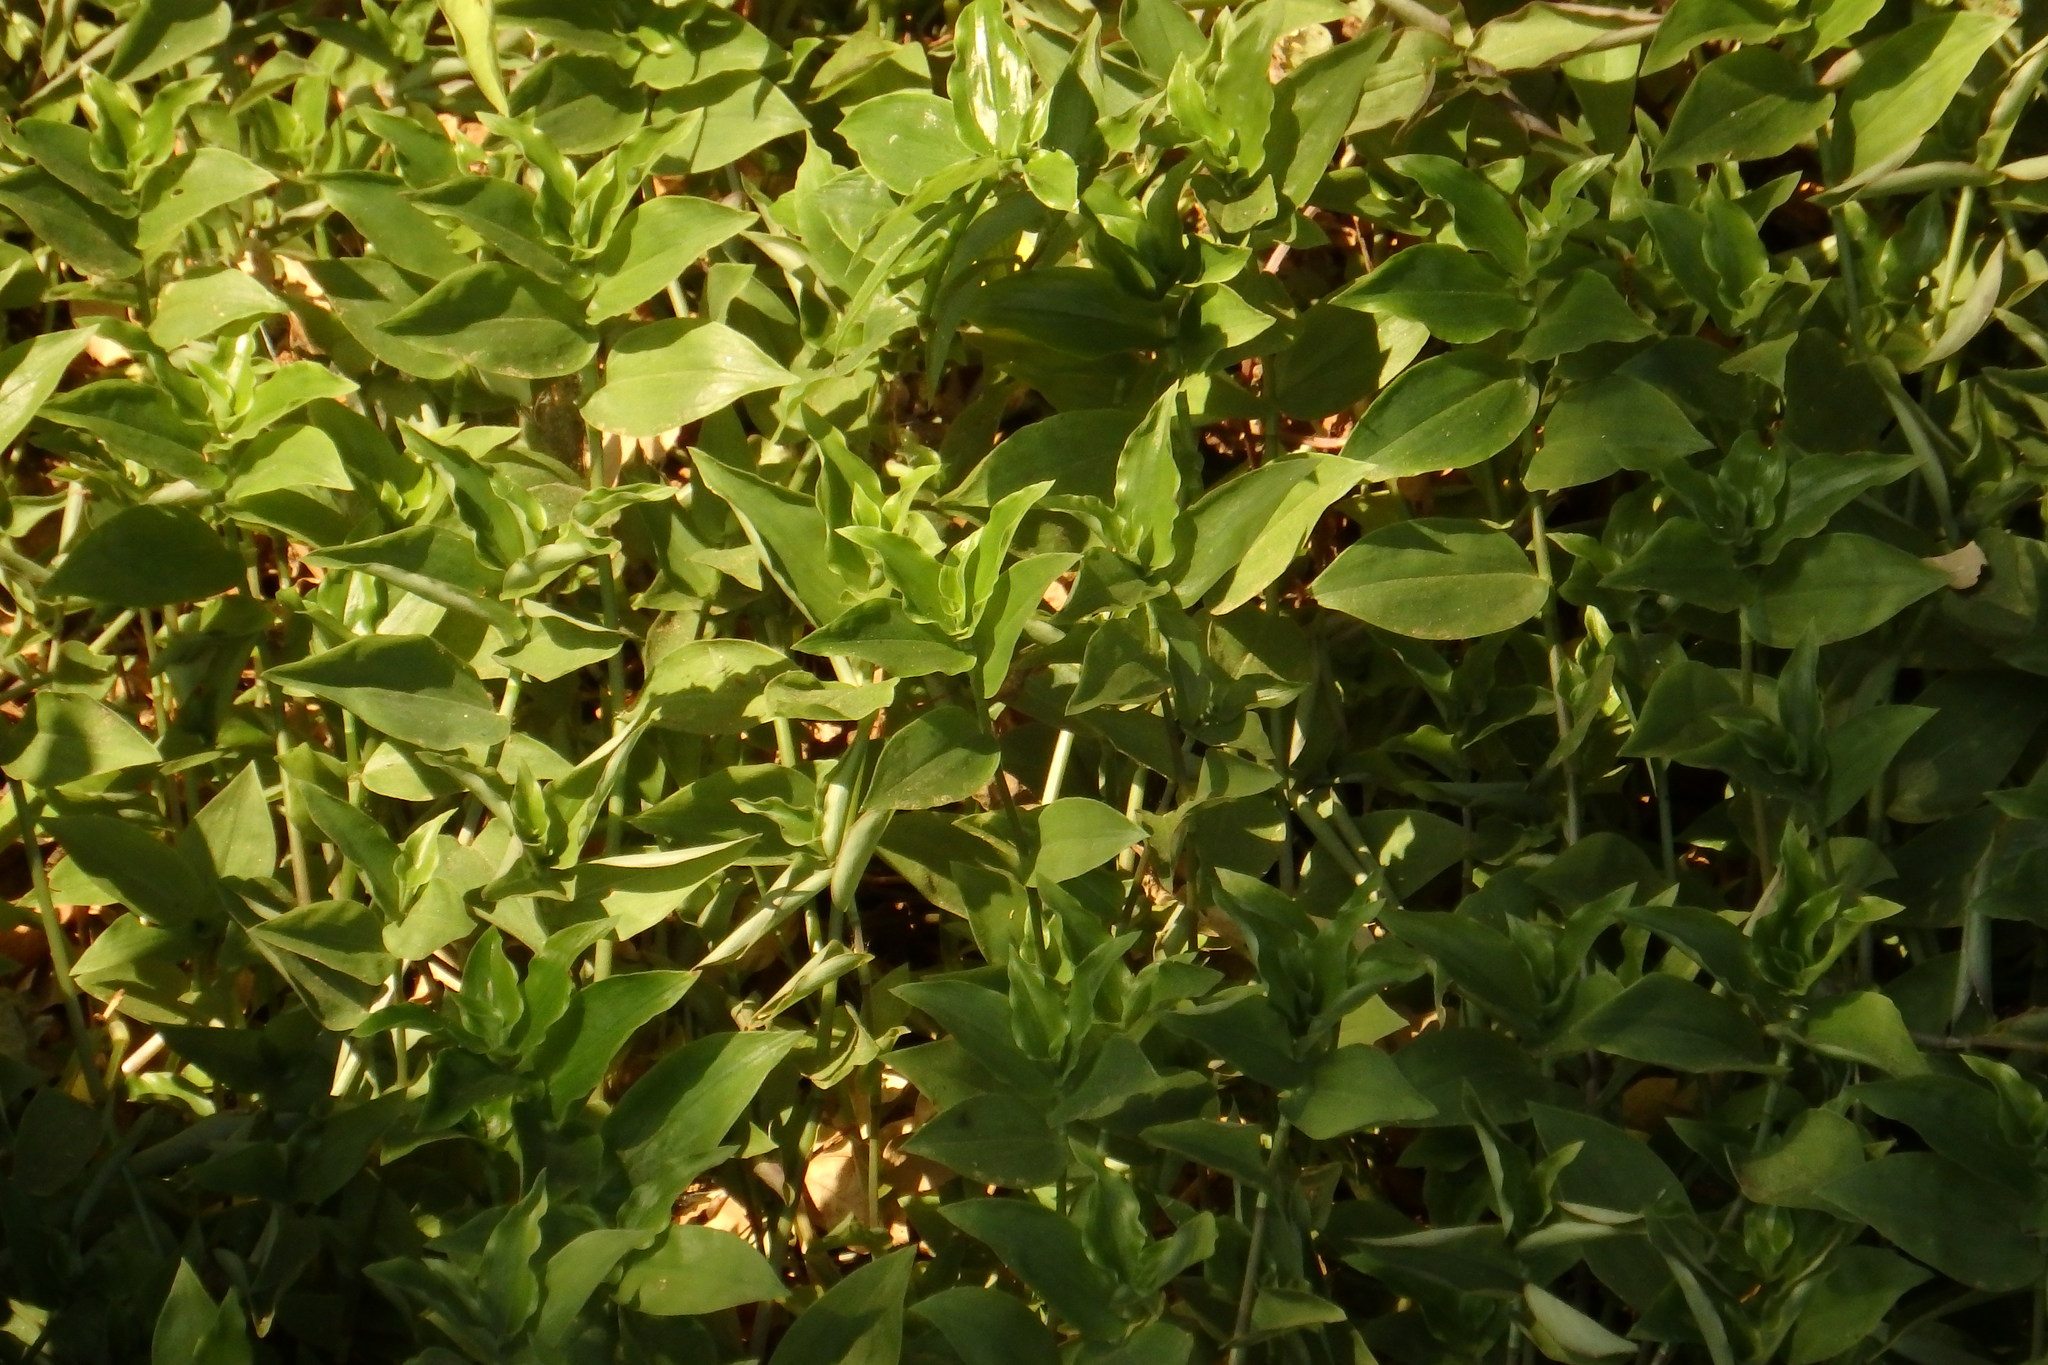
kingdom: Plantae
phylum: Tracheophyta
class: Liliopsida
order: Commelinales
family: Commelinaceae
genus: Tradescantia
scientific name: Tradescantia fluminensis
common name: Wandering-jew
